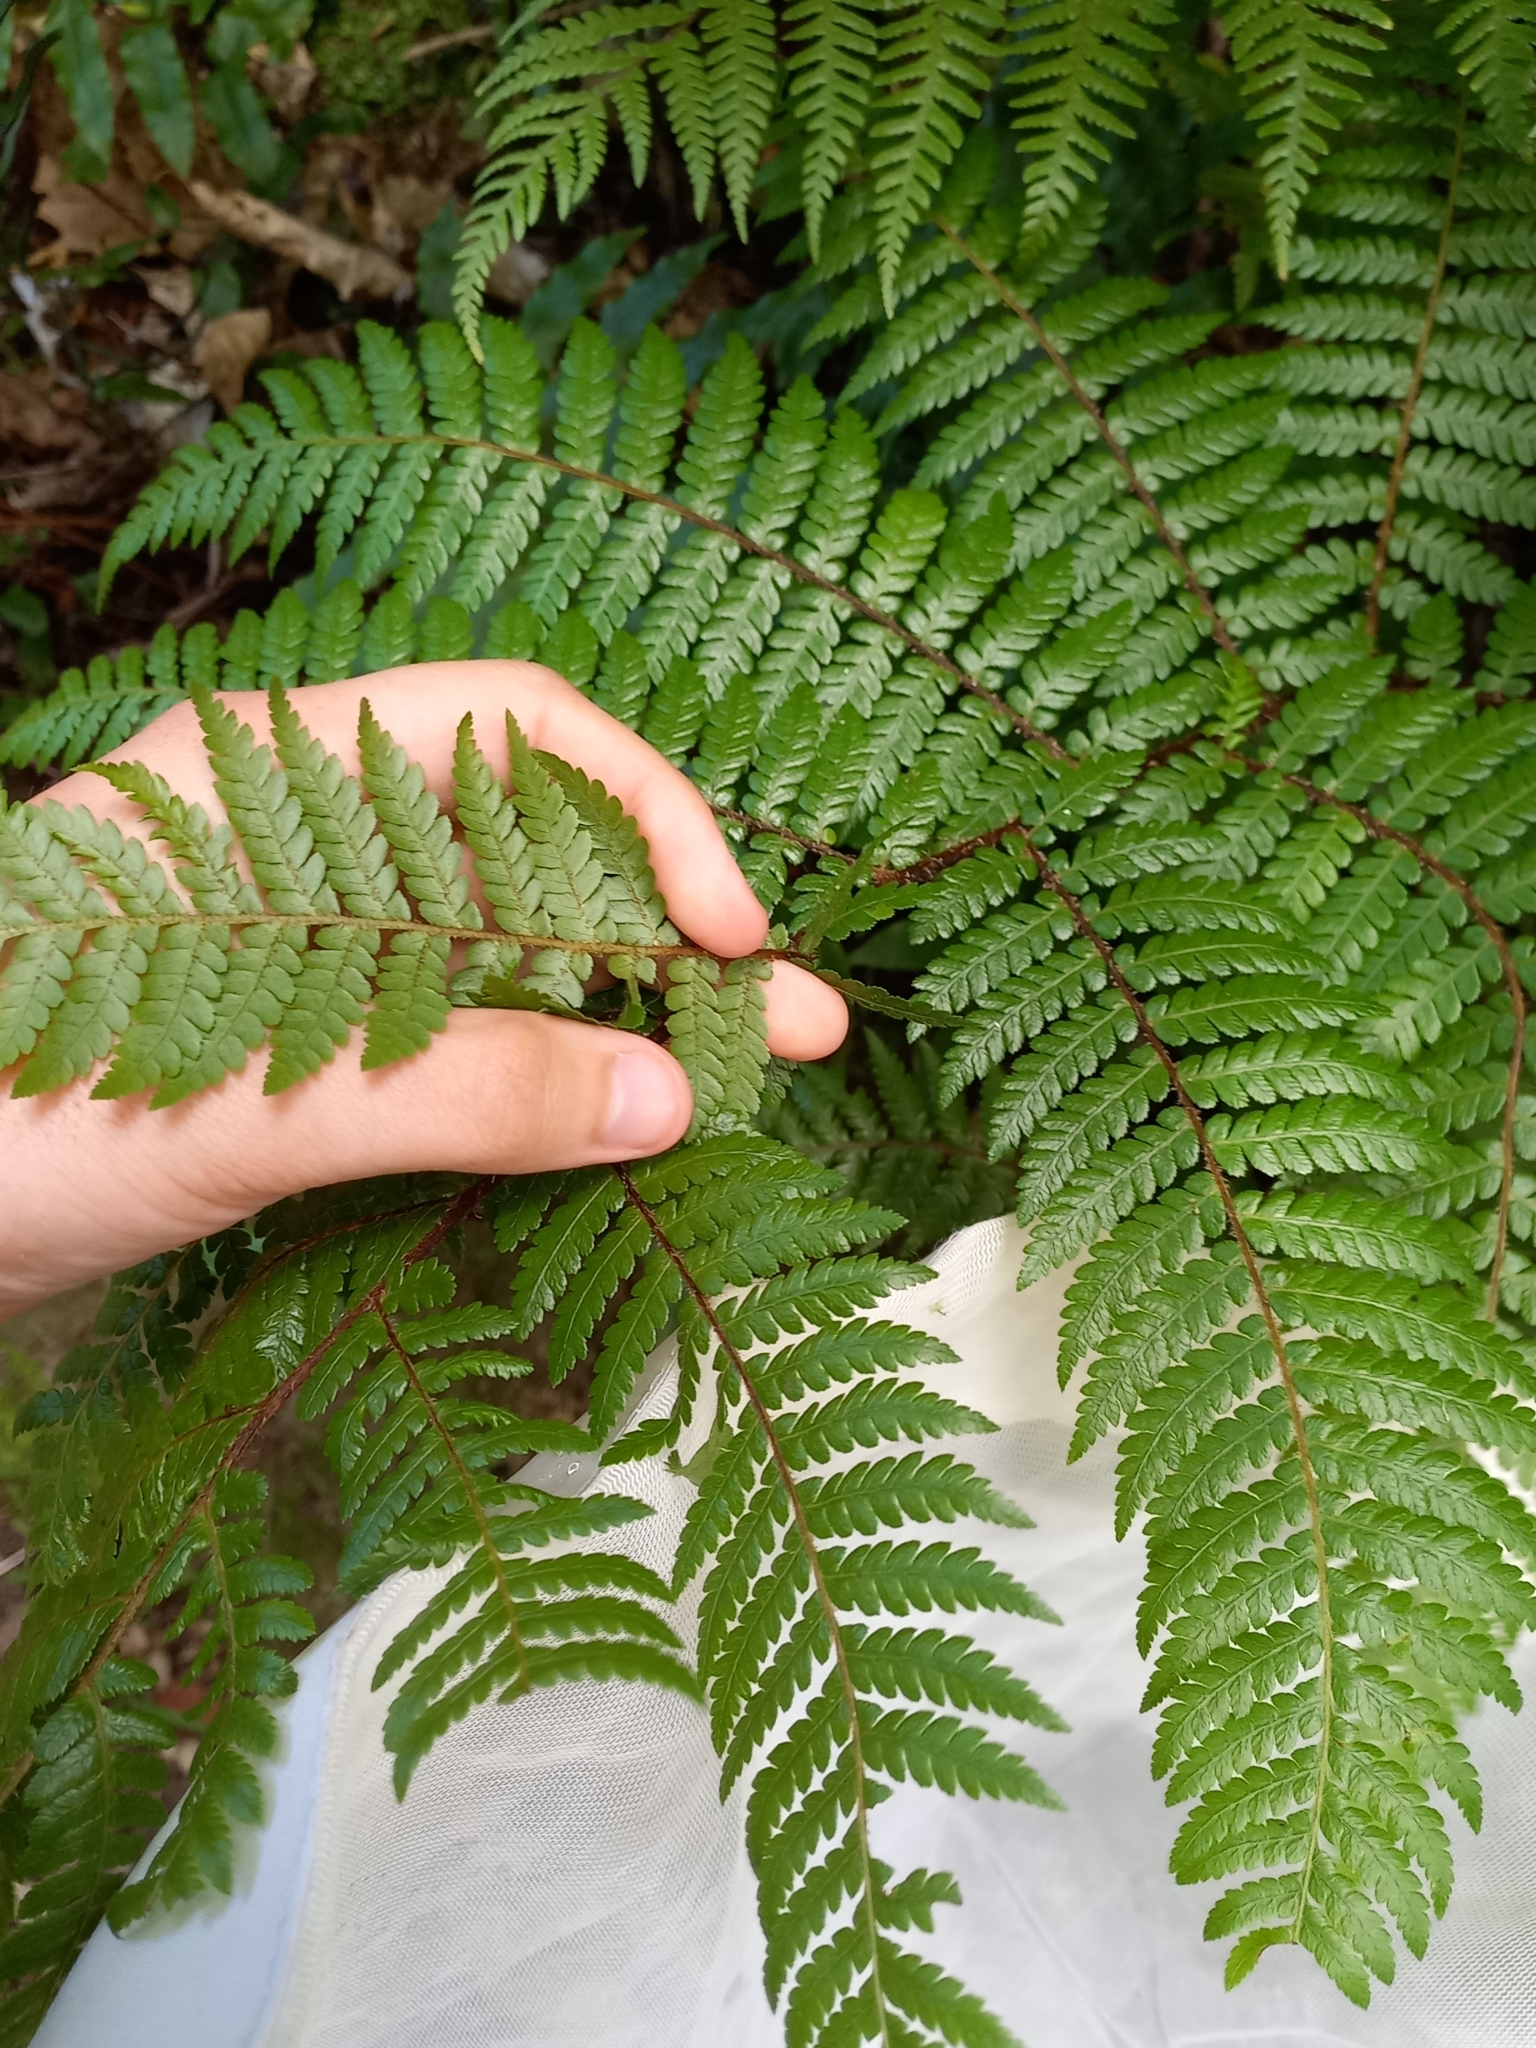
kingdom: Plantae
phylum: Tracheophyta
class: Polypodiopsida
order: Cyatheales
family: Cyatheaceae
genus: Sphaeropteris
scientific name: Sphaeropteris medullaris
